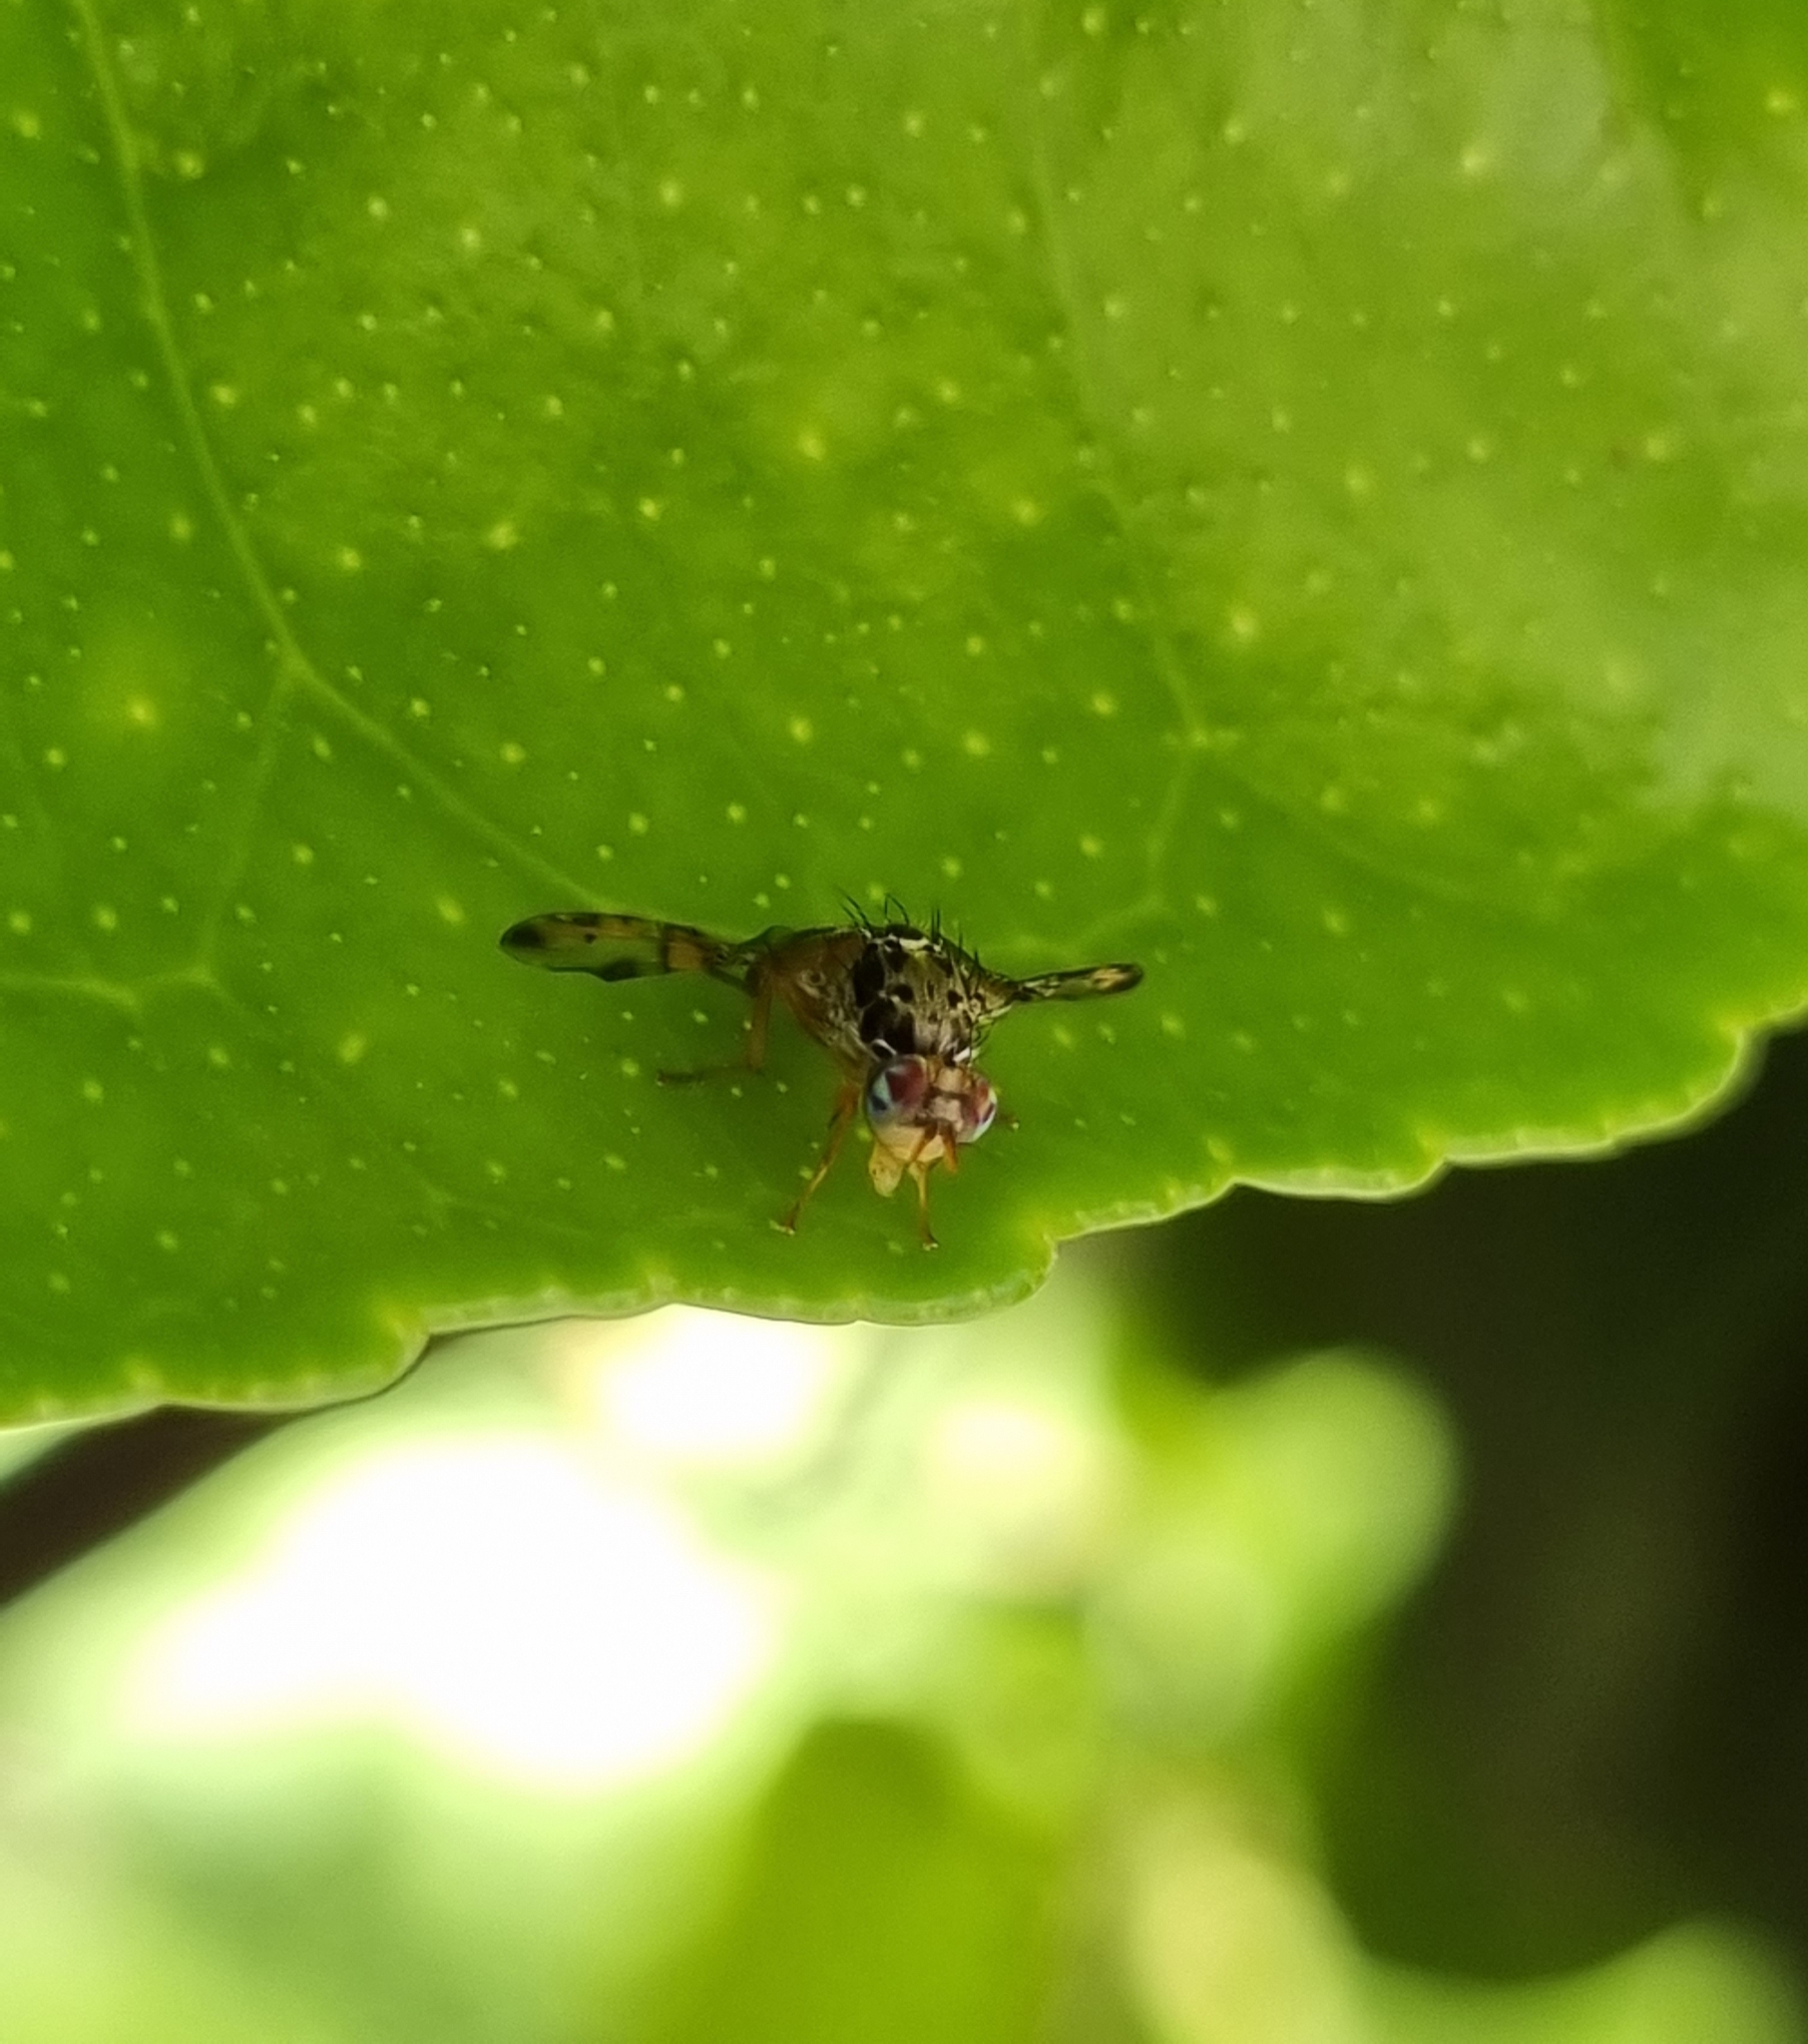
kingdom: Animalia
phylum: Arthropoda
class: Insecta
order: Diptera
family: Tephritidae
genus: Ceratitis
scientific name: Ceratitis capitata
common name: Mediterranean fruit fly
